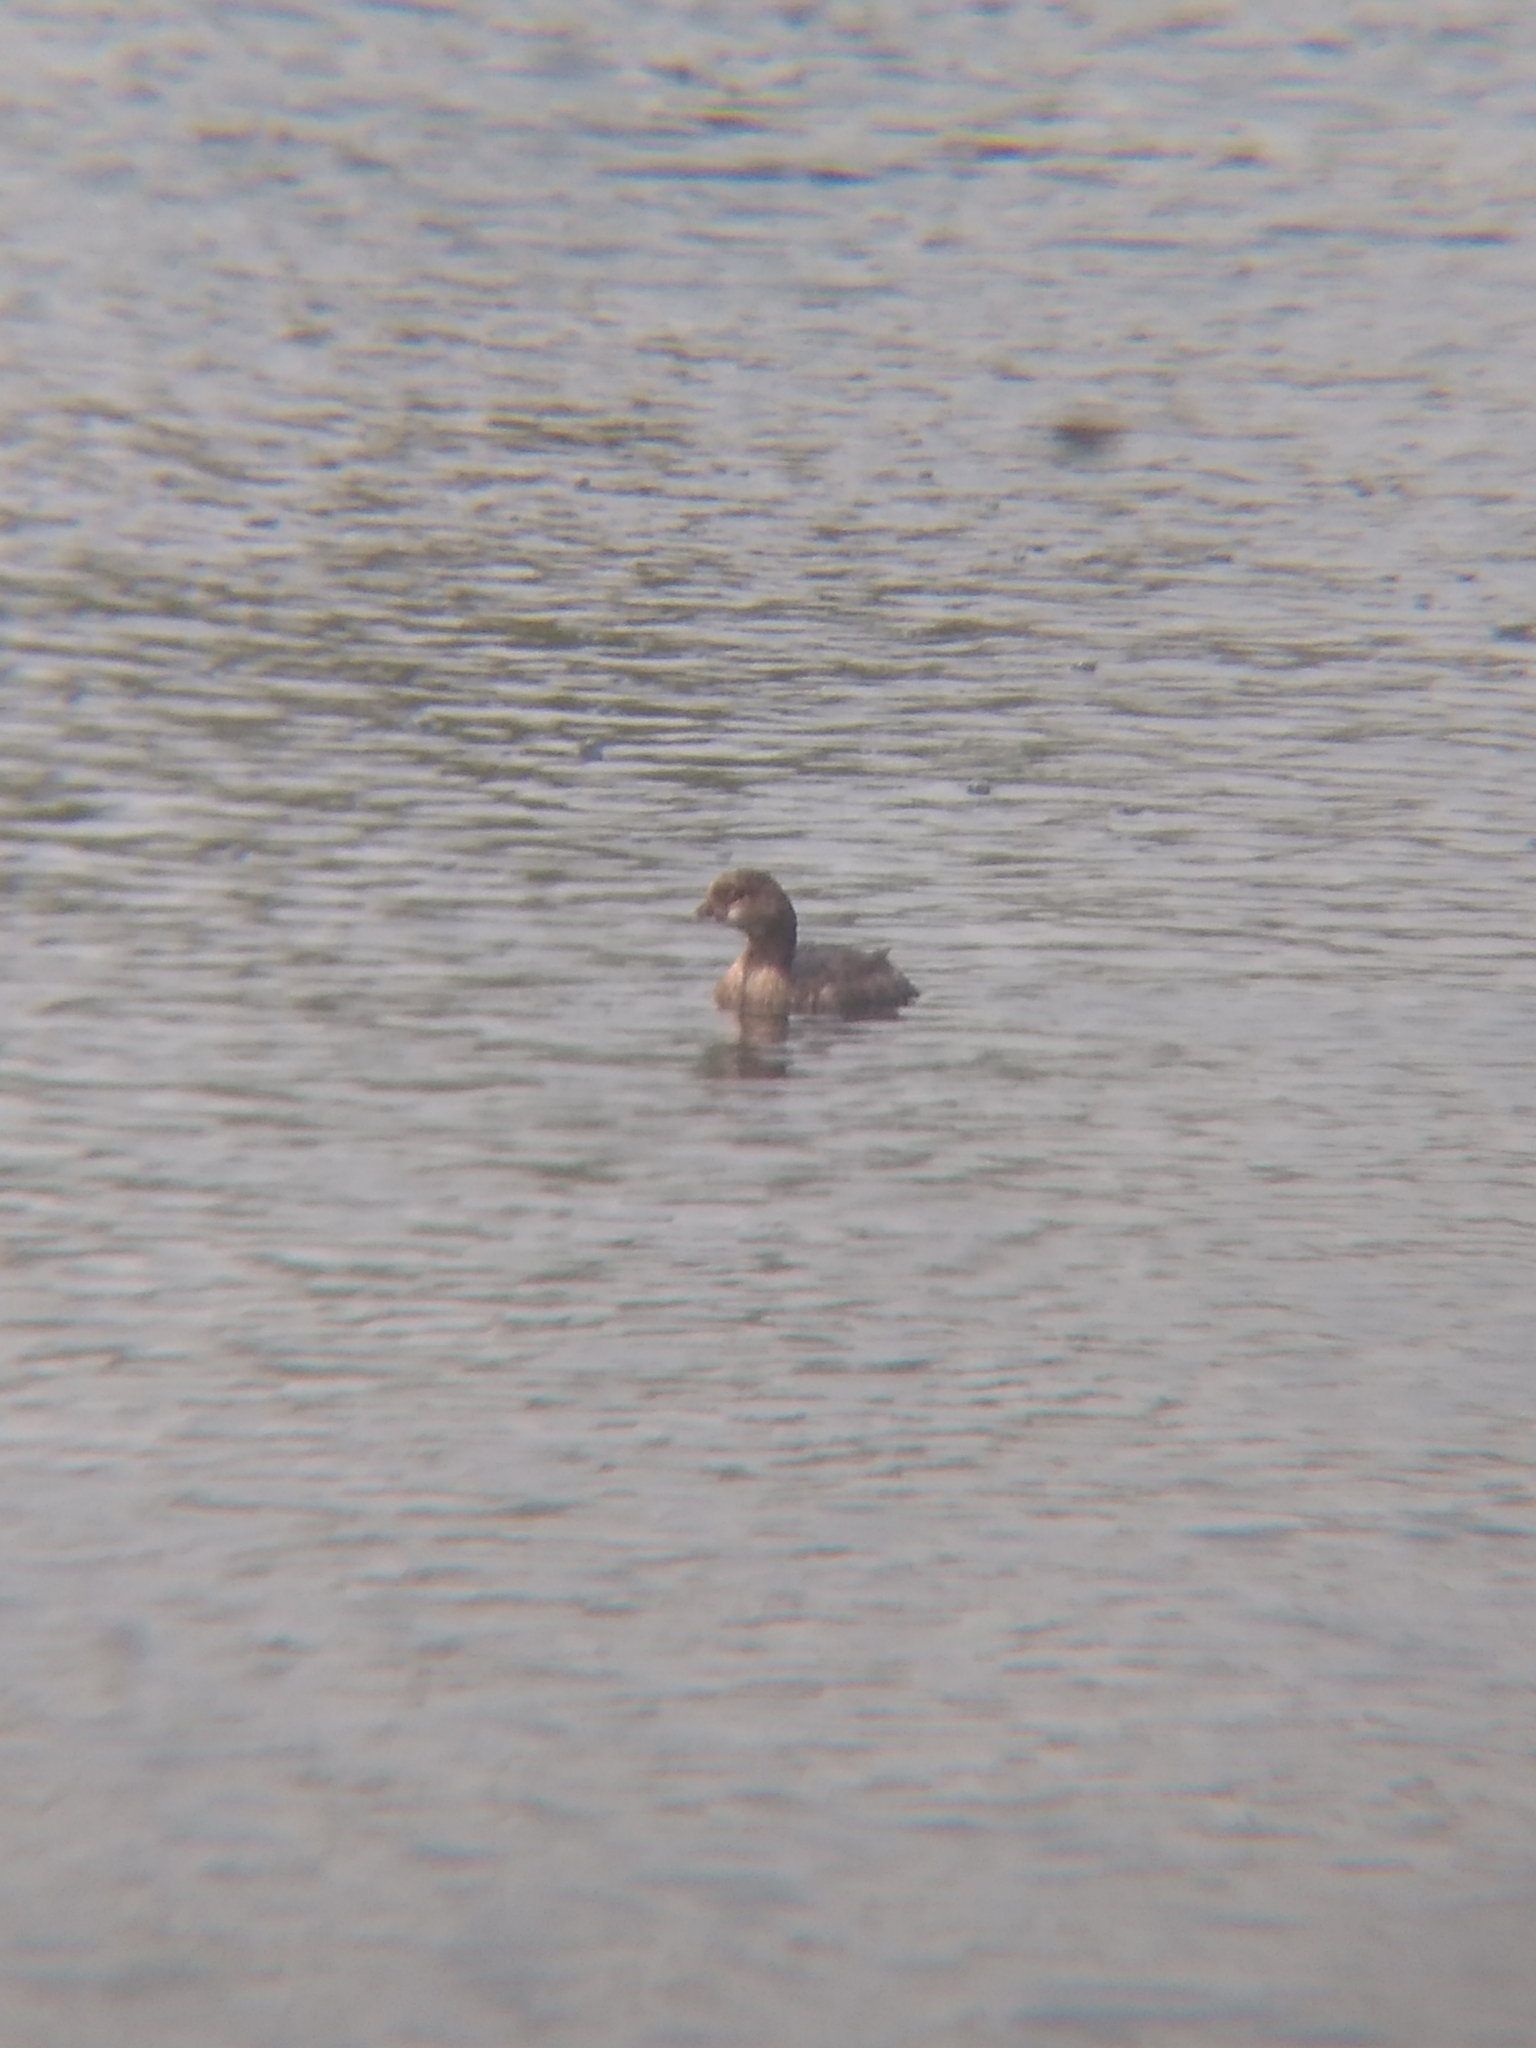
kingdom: Animalia
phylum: Chordata
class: Aves
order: Podicipediformes
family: Podicipedidae
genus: Podilymbus
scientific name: Podilymbus podiceps
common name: Pied-billed grebe
